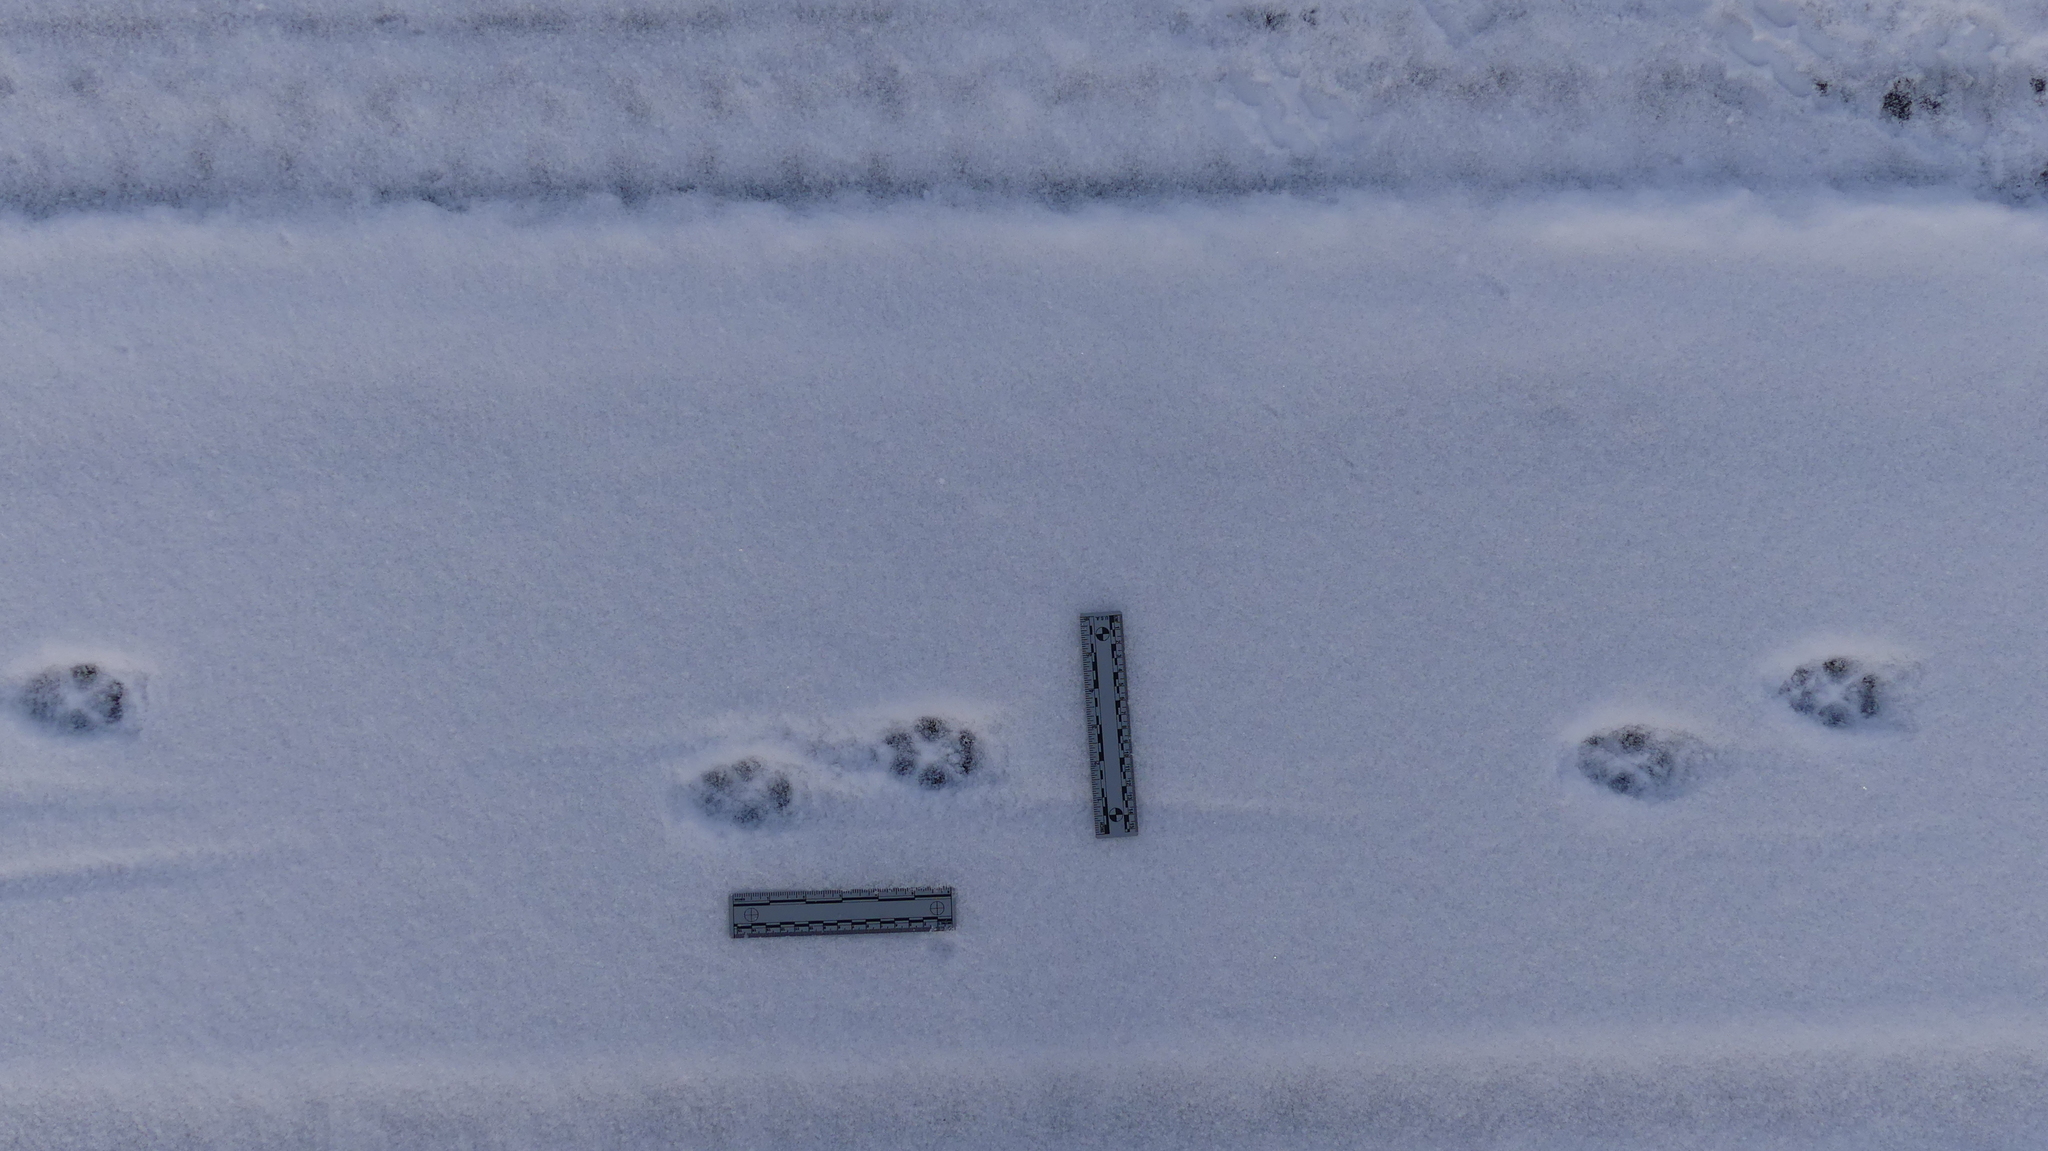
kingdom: Animalia
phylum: Chordata
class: Mammalia
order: Carnivora
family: Canidae
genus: Canis
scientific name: Canis latrans
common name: Coyote
